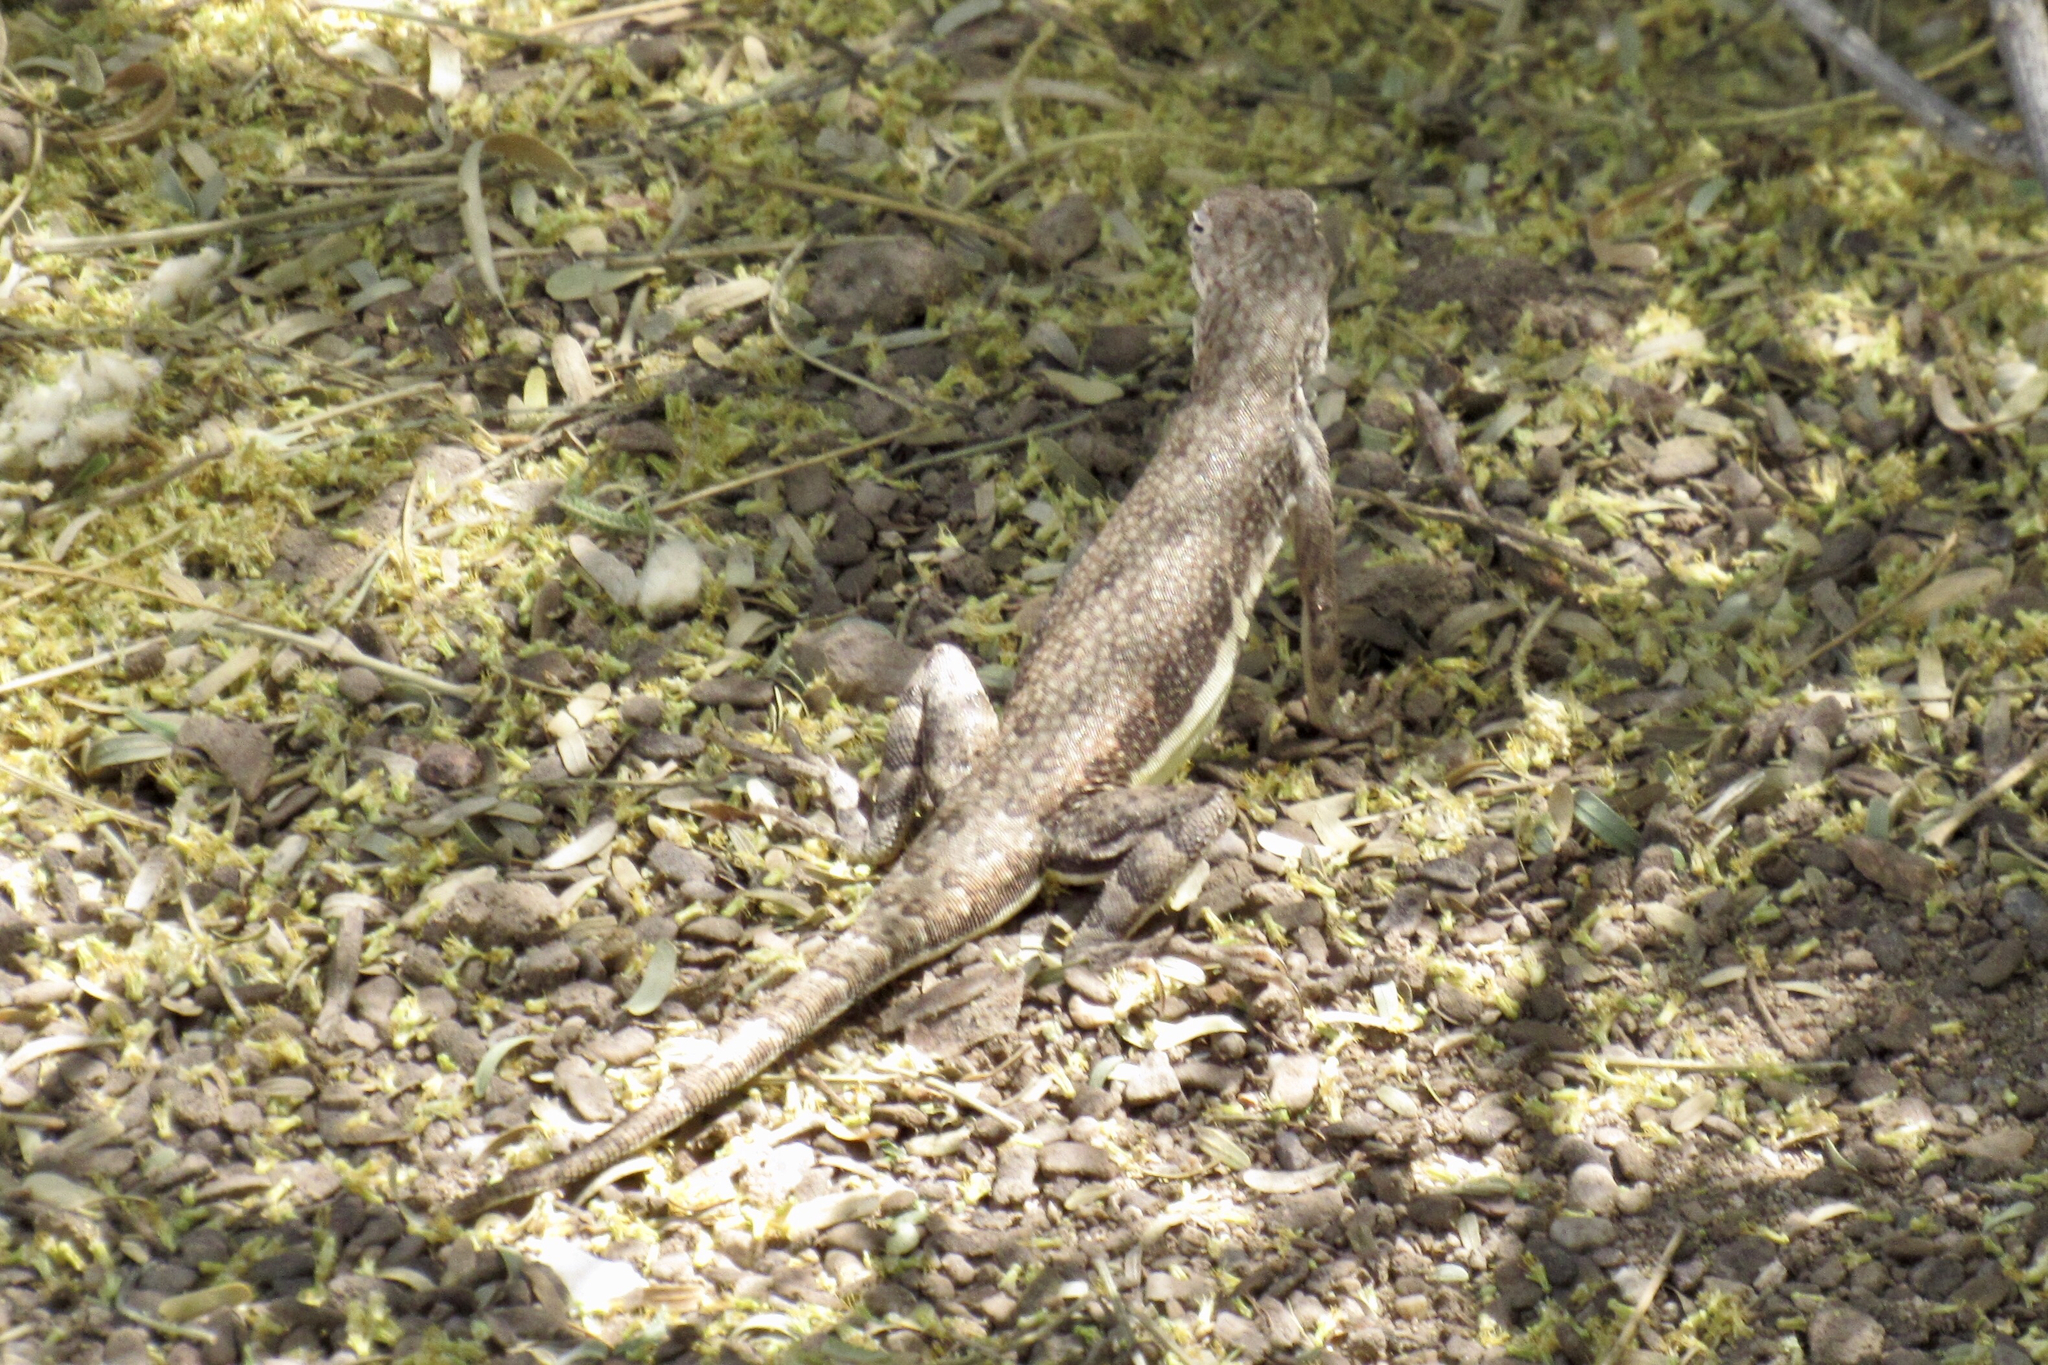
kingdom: Animalia
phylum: Chordata
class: Squamata
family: Phrynosomatidae
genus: Callisaurus
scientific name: Callisaurus draconoides
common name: Zebra-tailed lizard
